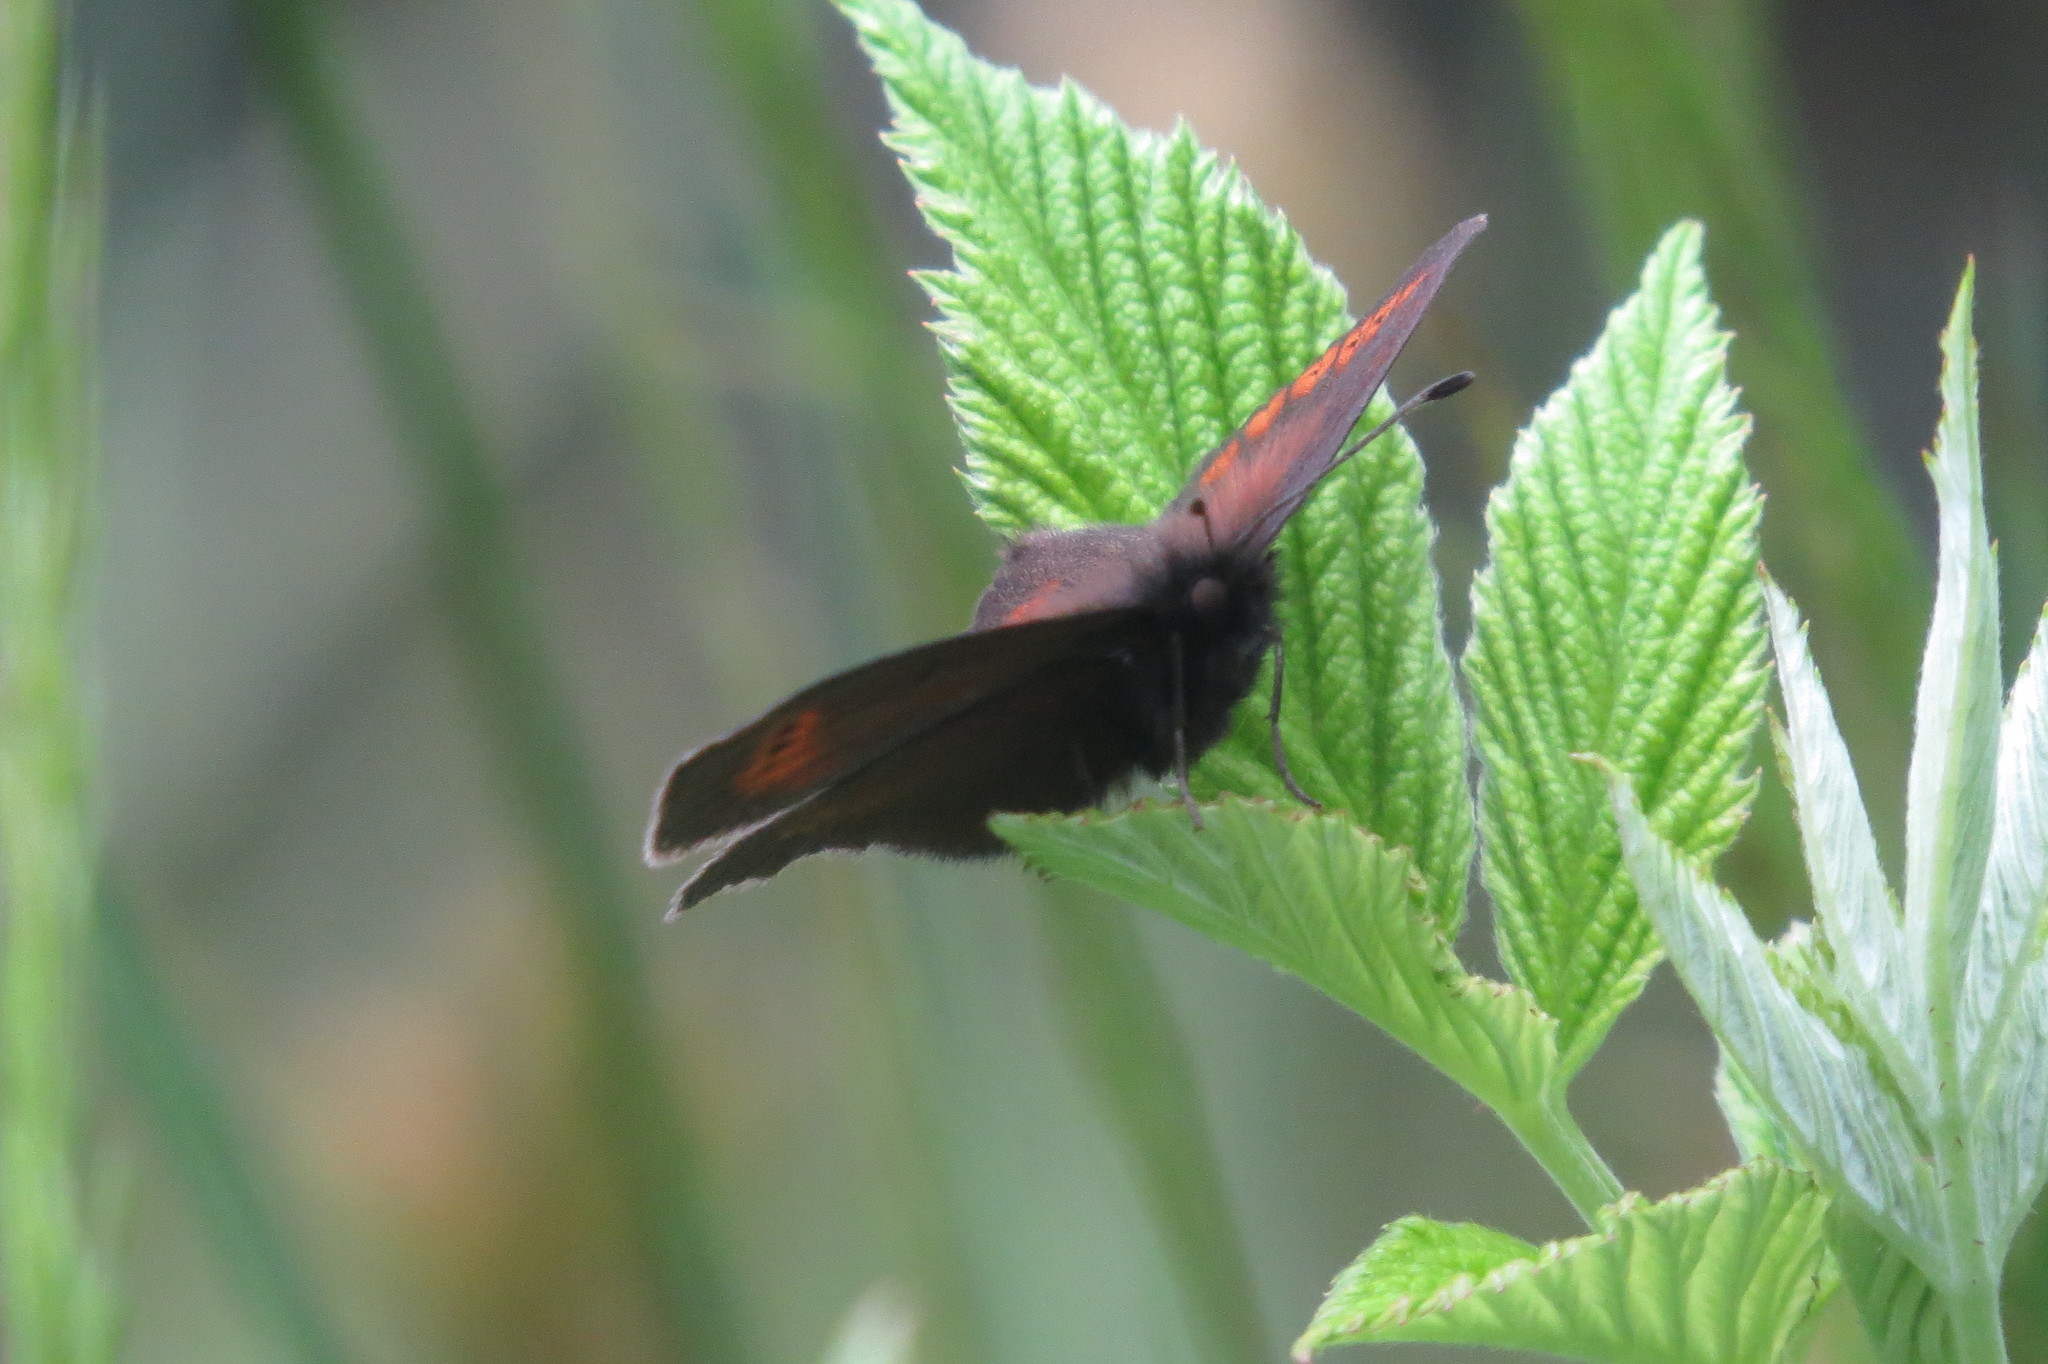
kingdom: Animalia
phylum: Arthropoda
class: Insecta
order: Lepidoptera
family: Nymphalidae
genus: Erebia
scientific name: Erebia melampus
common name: Lesser mountain ringlet
